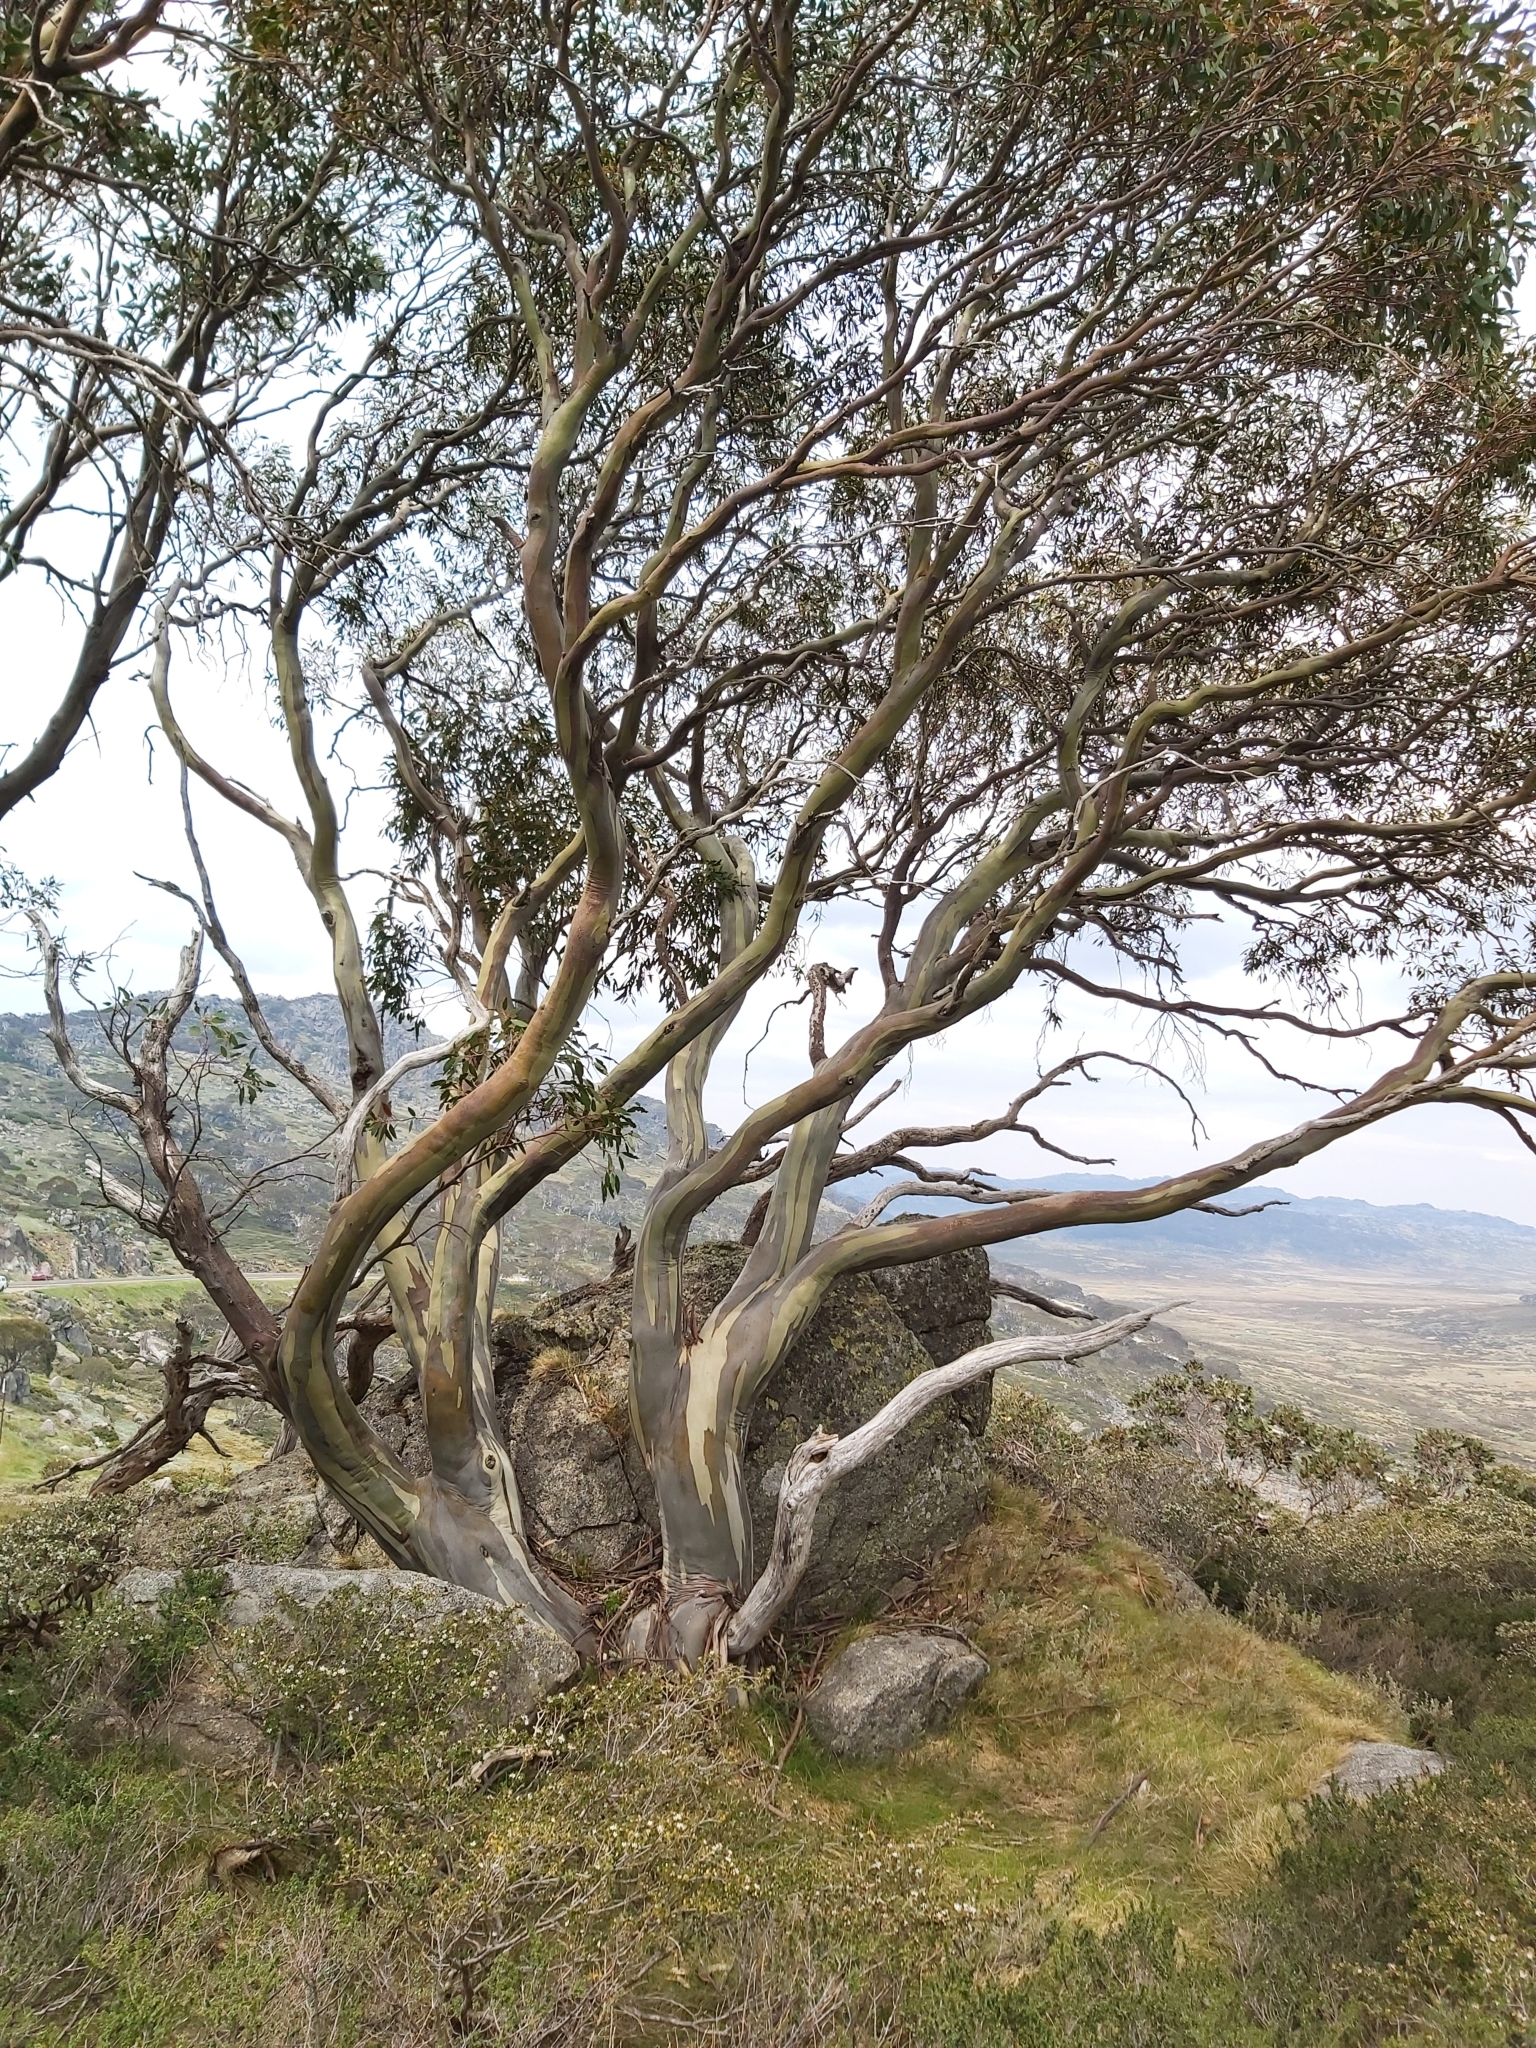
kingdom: Plantae
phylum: Tracheophyta
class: Magnoliopsida
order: Myrtales
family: Myrtaceae
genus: Eucalyptus
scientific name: Eucalyptus pauciflora
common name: Snow gum
